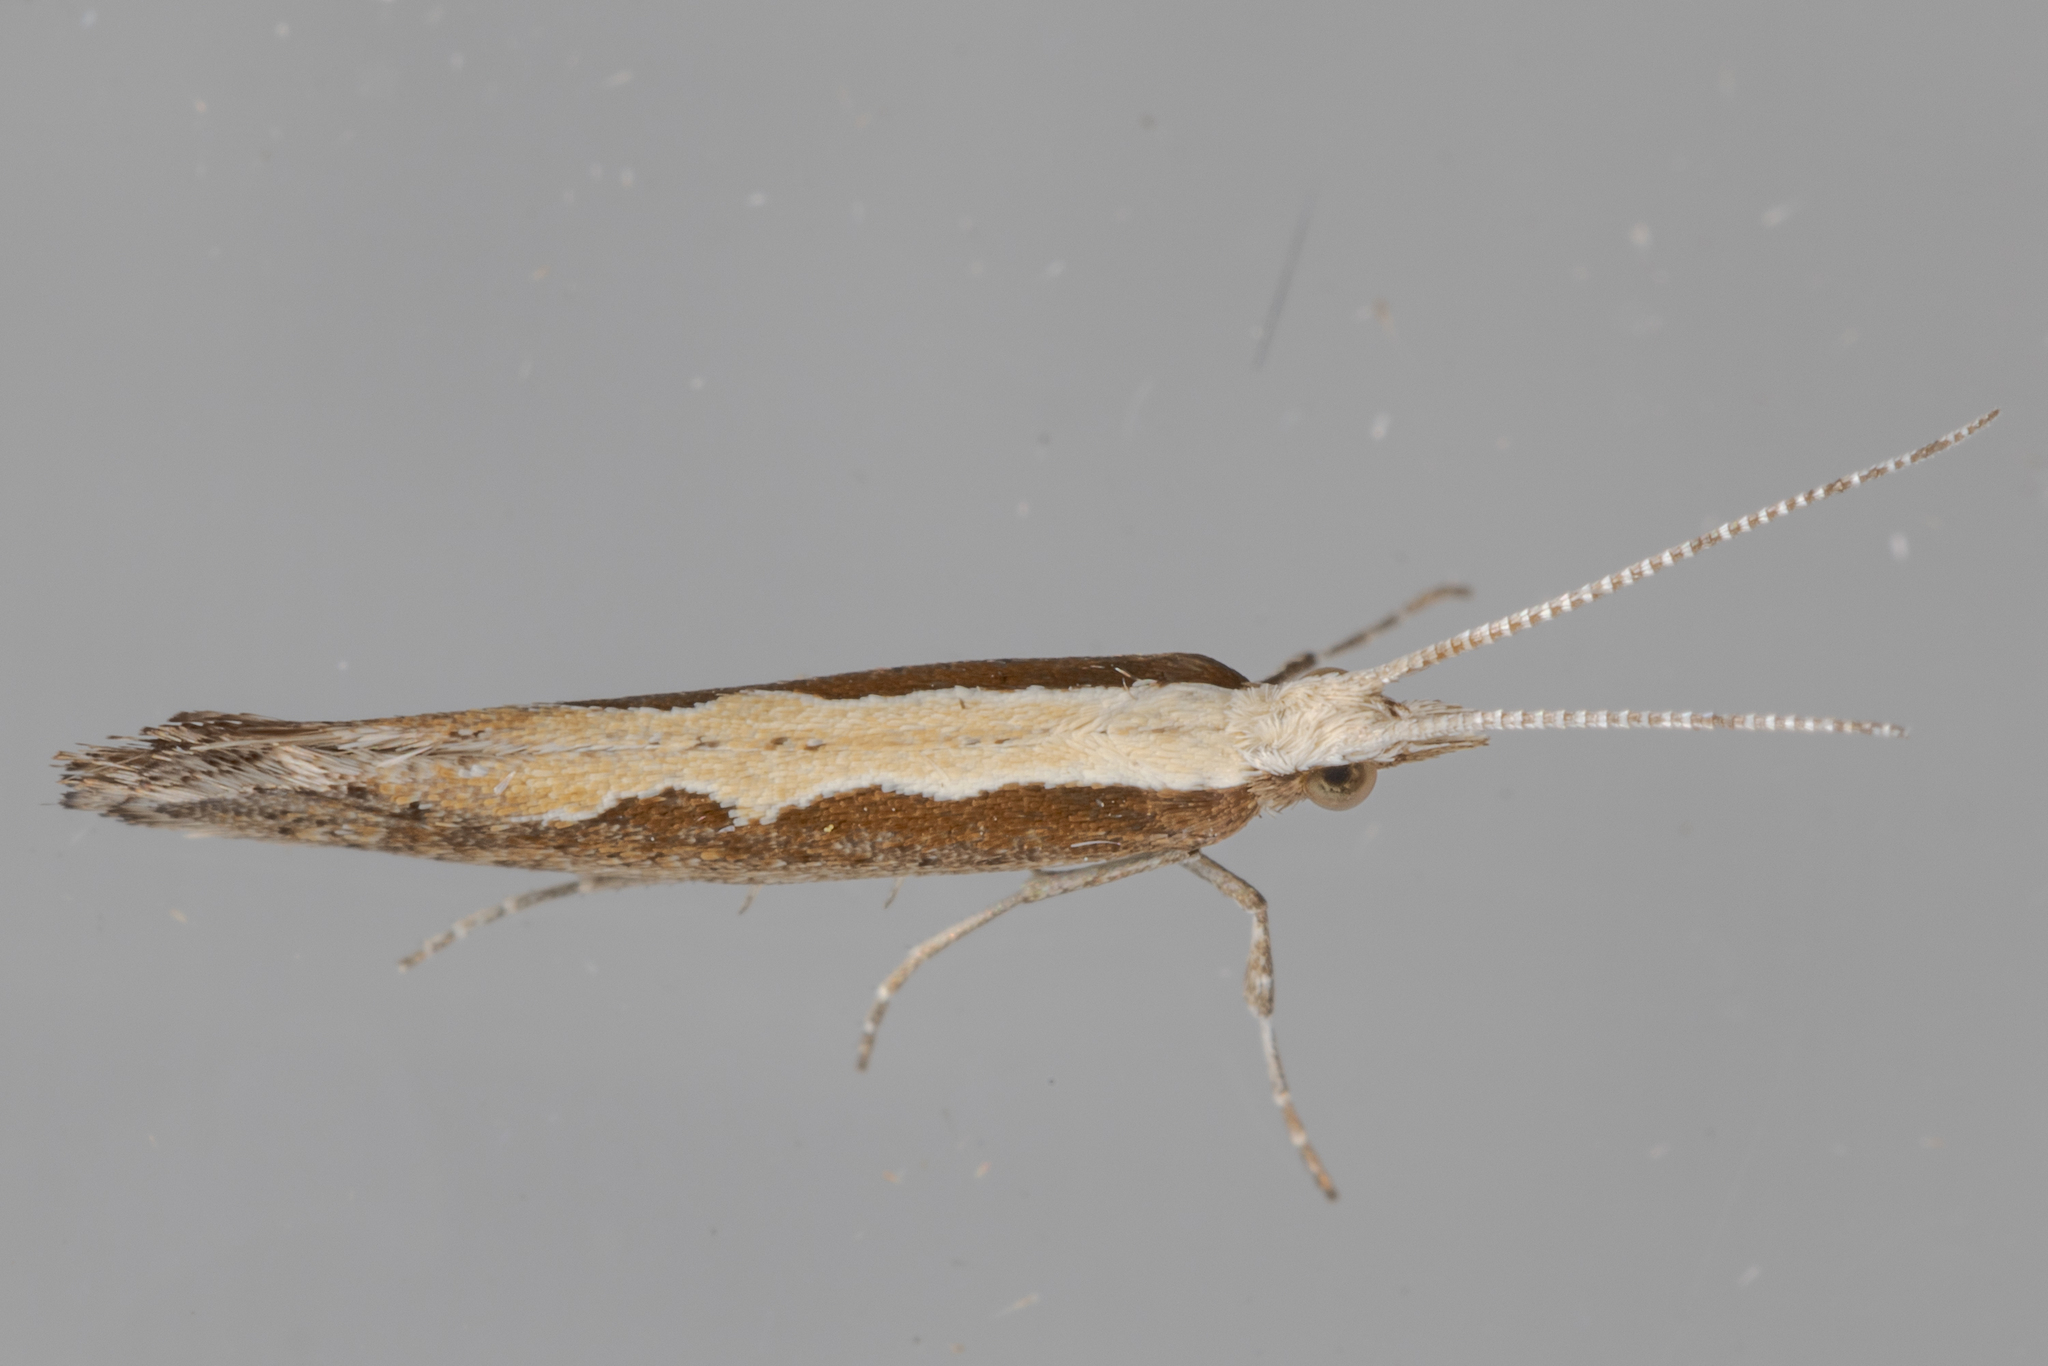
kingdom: Animalia
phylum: Arthropoda
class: Insecta
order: Lepidoptera
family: Plutellidae
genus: Plutella
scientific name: Plutella xylostella
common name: Diamond-back moth
